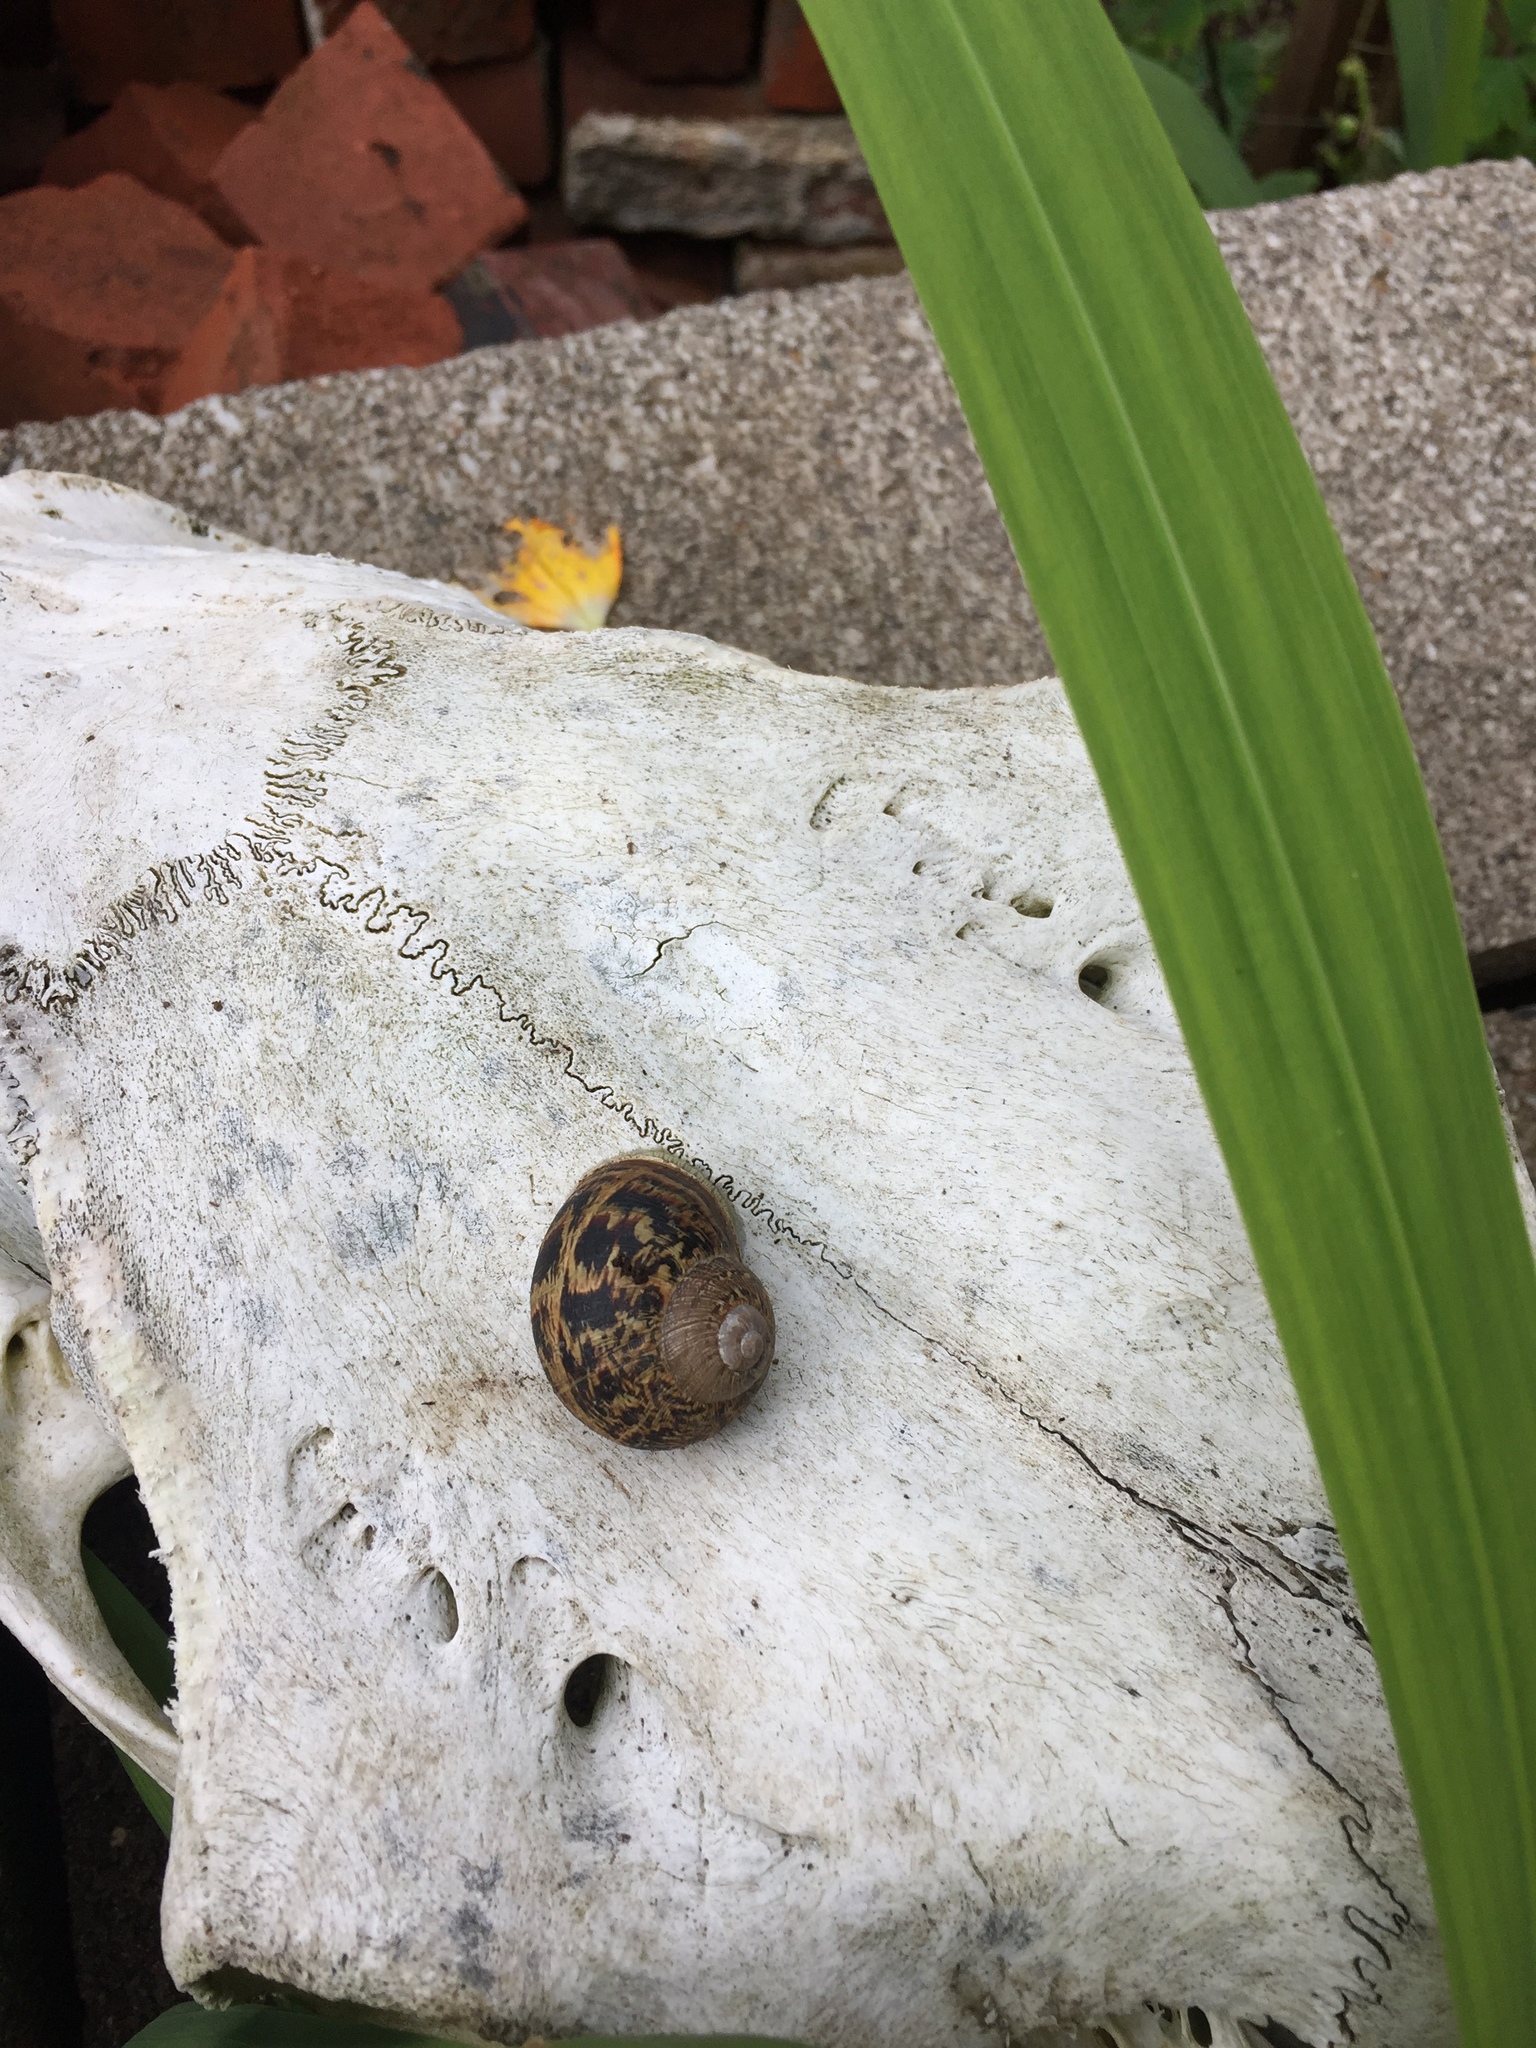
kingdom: Animalia
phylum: Mollusca
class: Gastropoda
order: Stylommatophora
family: Helicidae
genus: Cornu
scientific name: Cornu aspersum
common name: Brown garden snail
